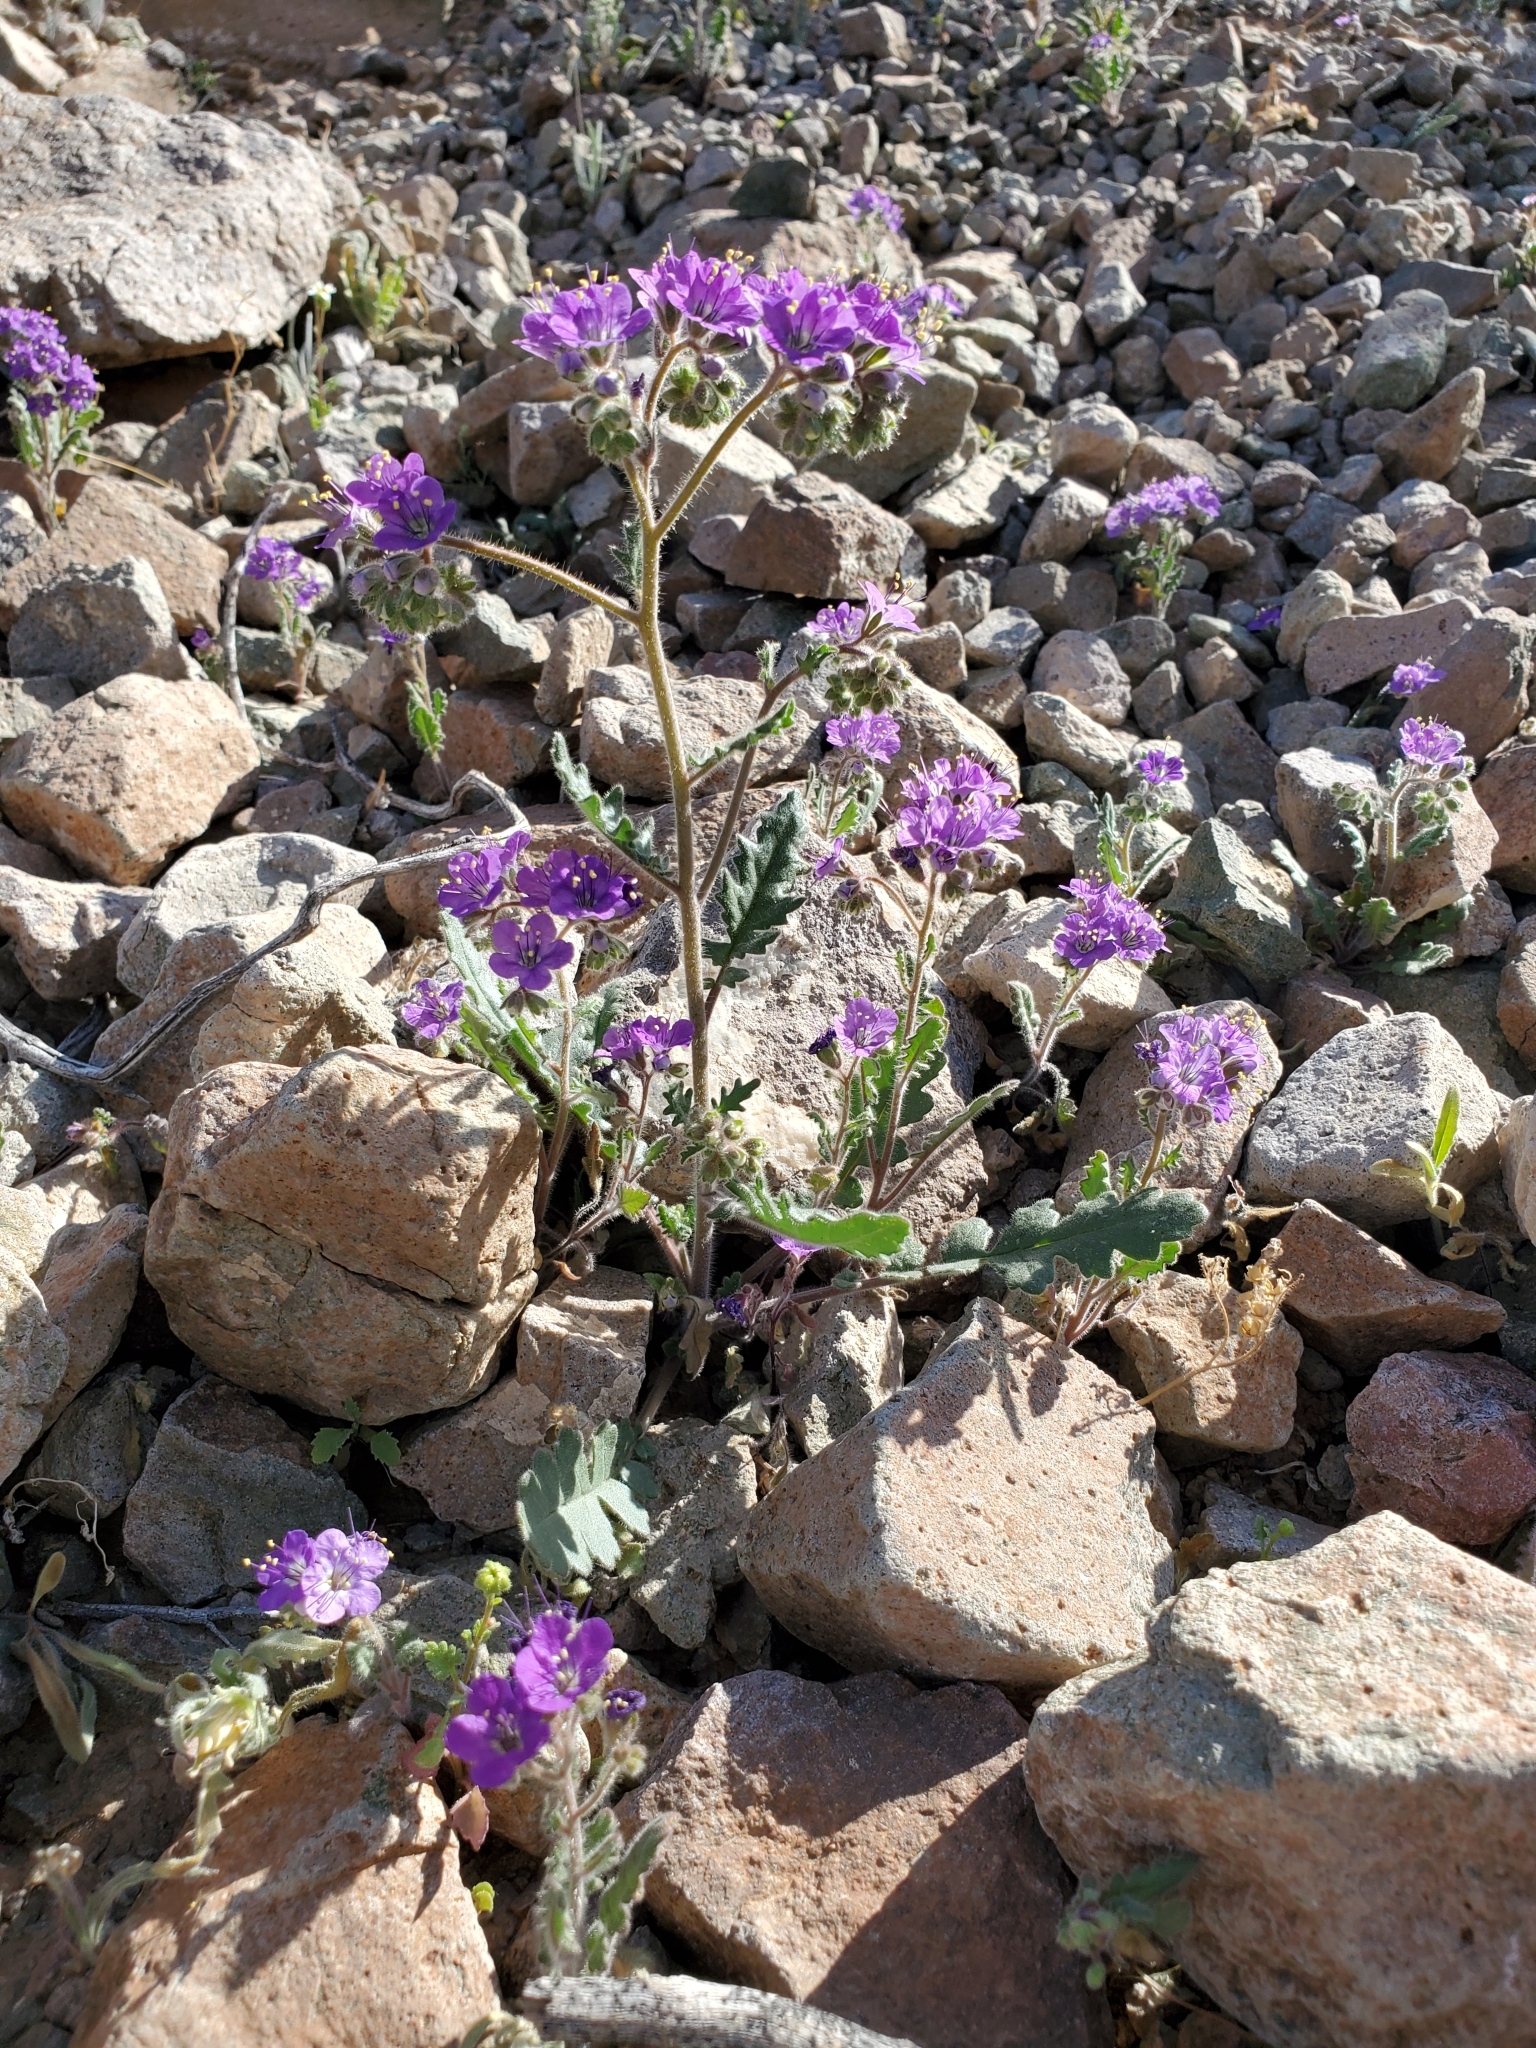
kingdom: Plantae
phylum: Tracheophyta
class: Magnoliopsida
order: Boraginales
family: Hydrophyllaceae
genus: Phacelia
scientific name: Phacelia crenulata
